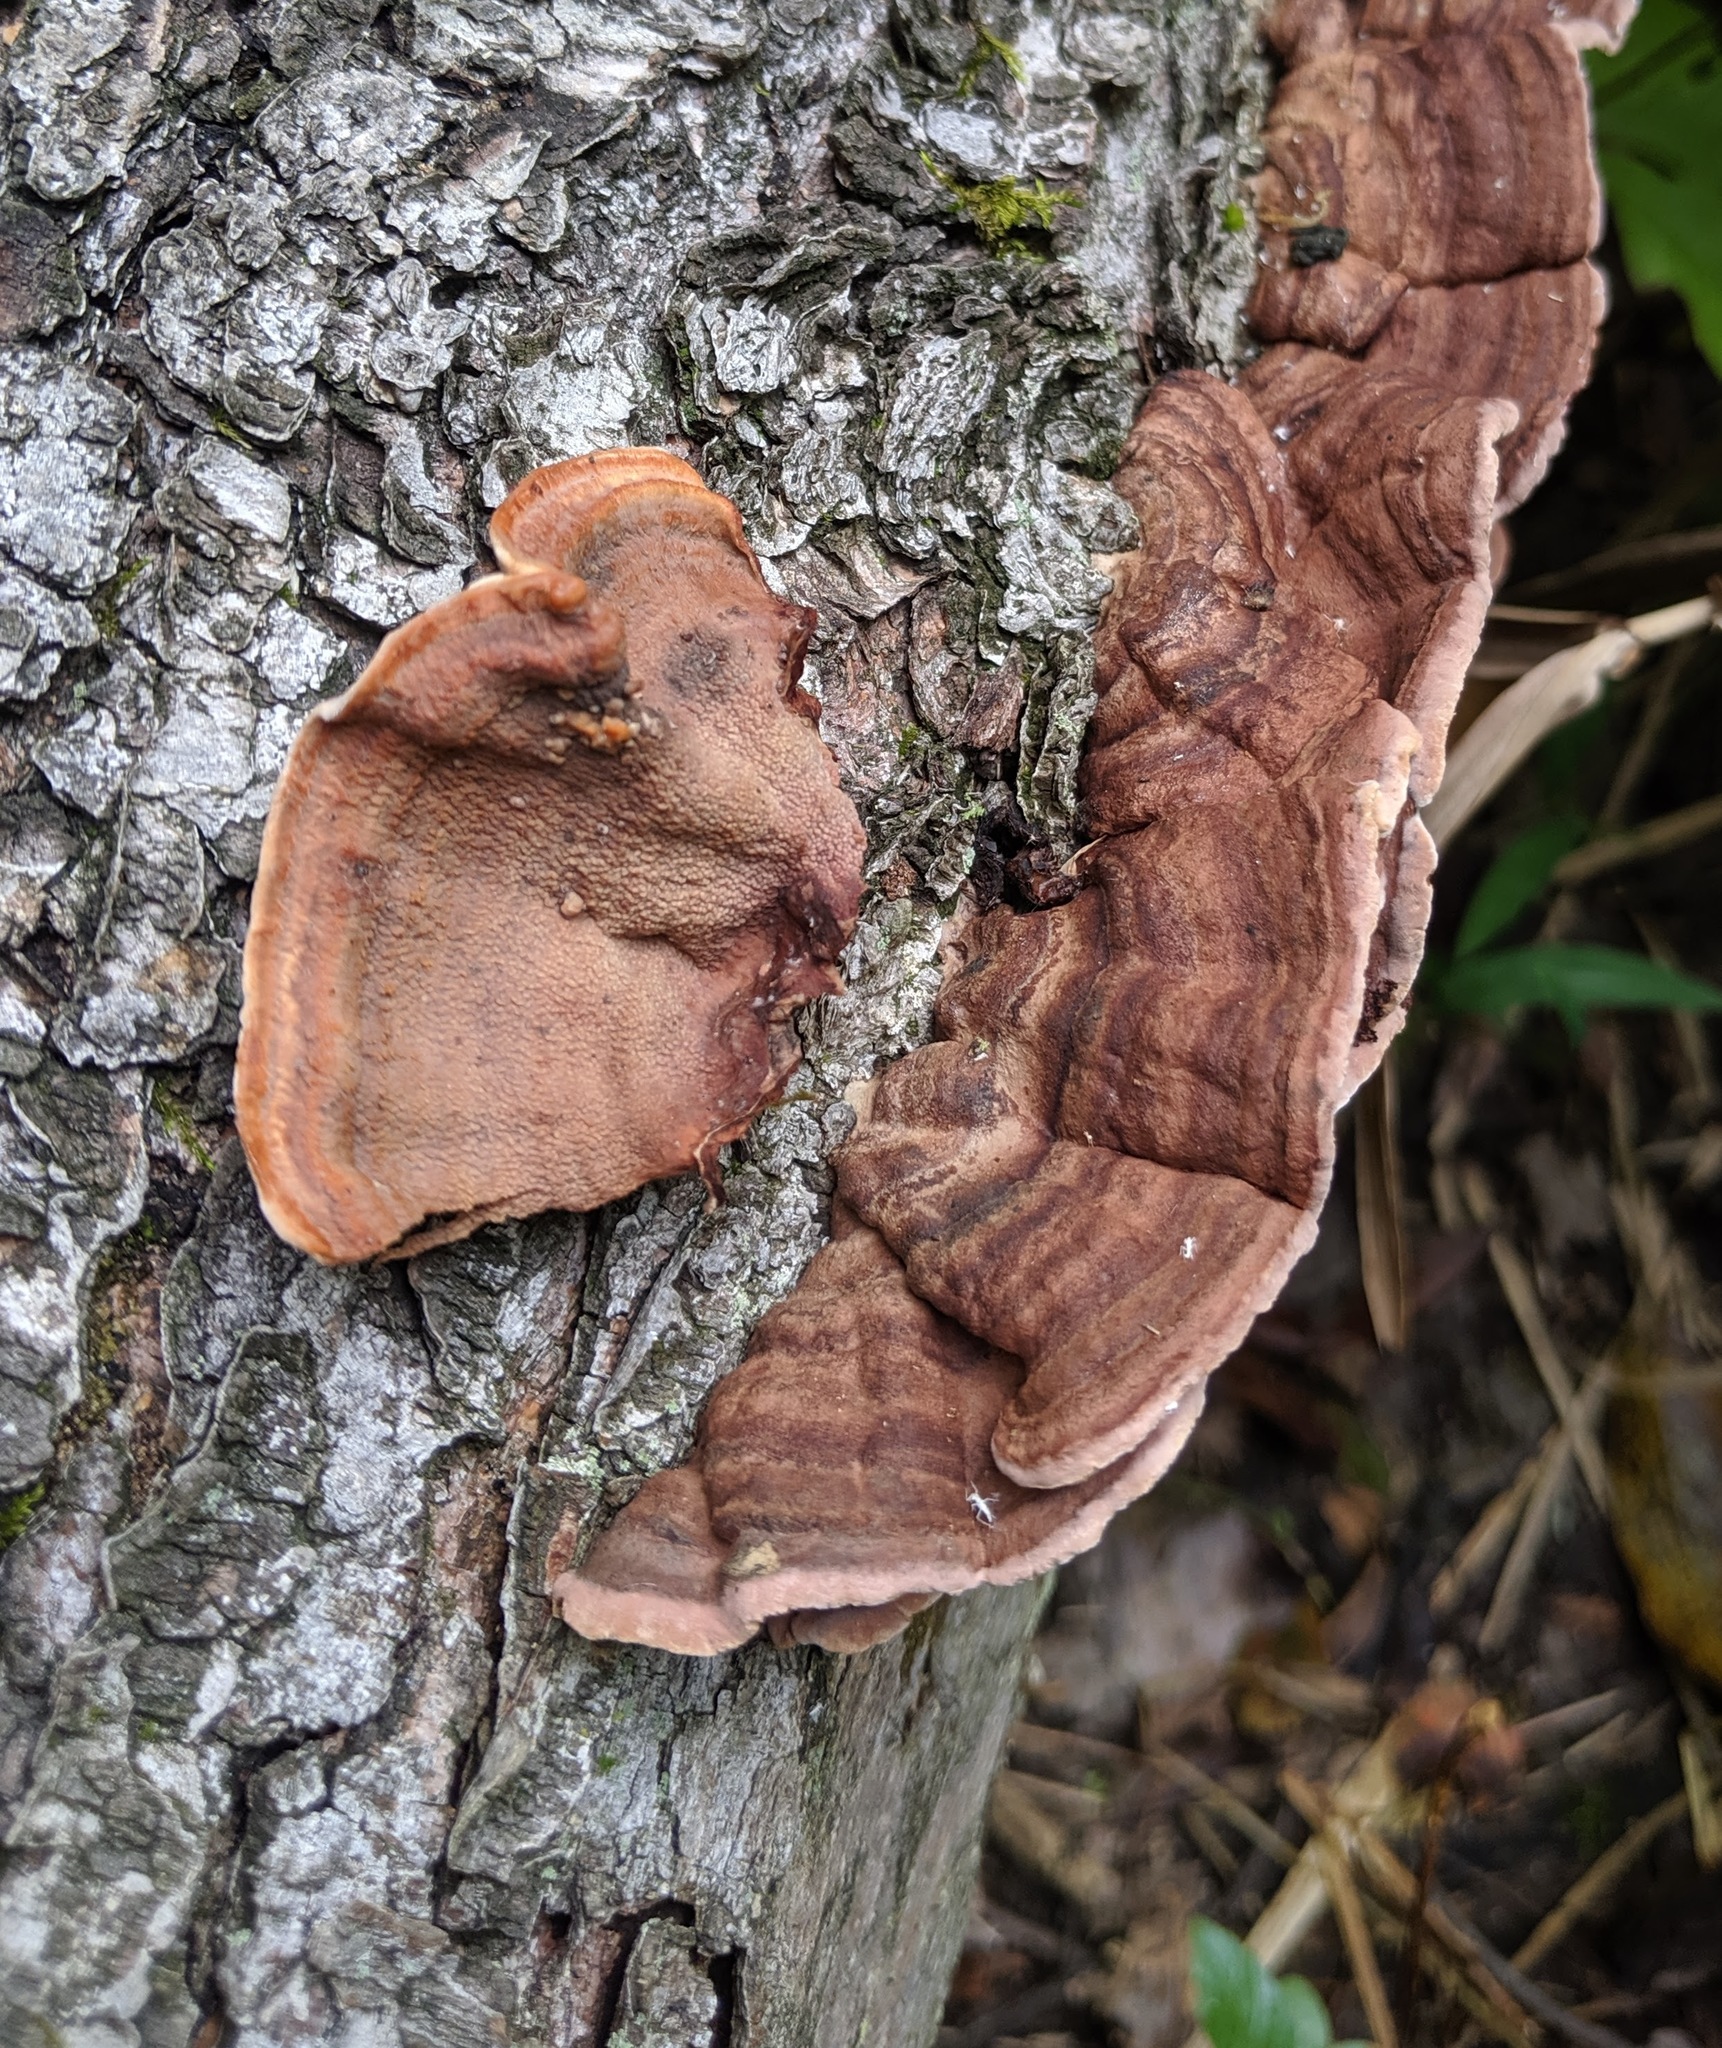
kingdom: Fungi
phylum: Basidiomycota
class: Agaricomycetes
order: Corticiales
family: Punctulariaceae
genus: Punctularia
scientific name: Punctularia strigosozonata
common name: White-rot fungus
